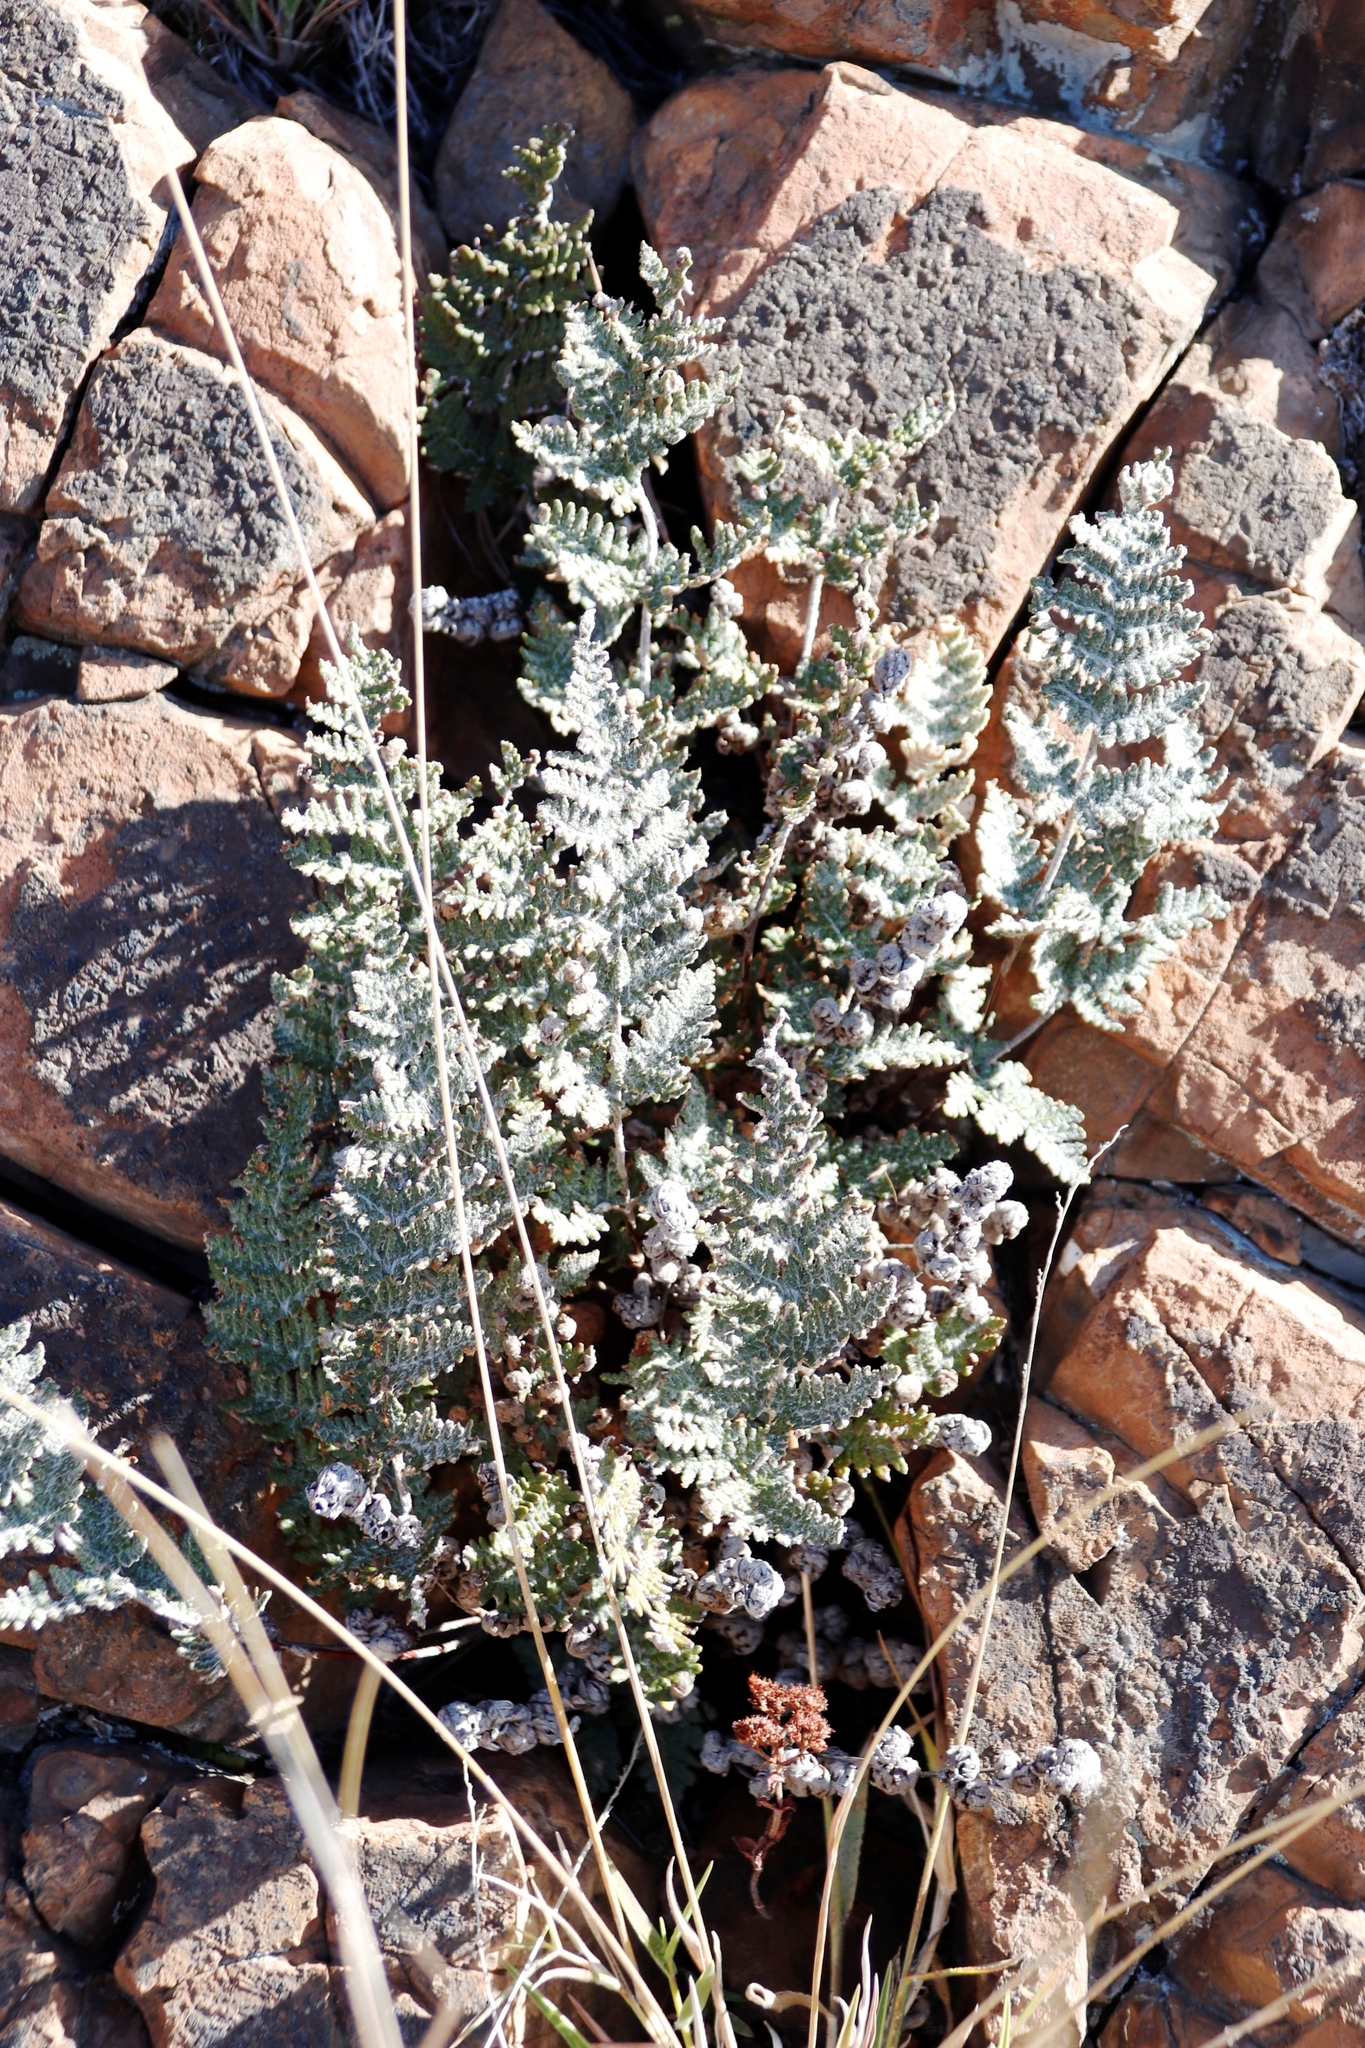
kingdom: Plantae
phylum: Tracheophyta
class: Polypodiopsida
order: Polypodiales
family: Pteridaceae
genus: Cheilanthes
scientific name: Cheilanthes eckloniana
